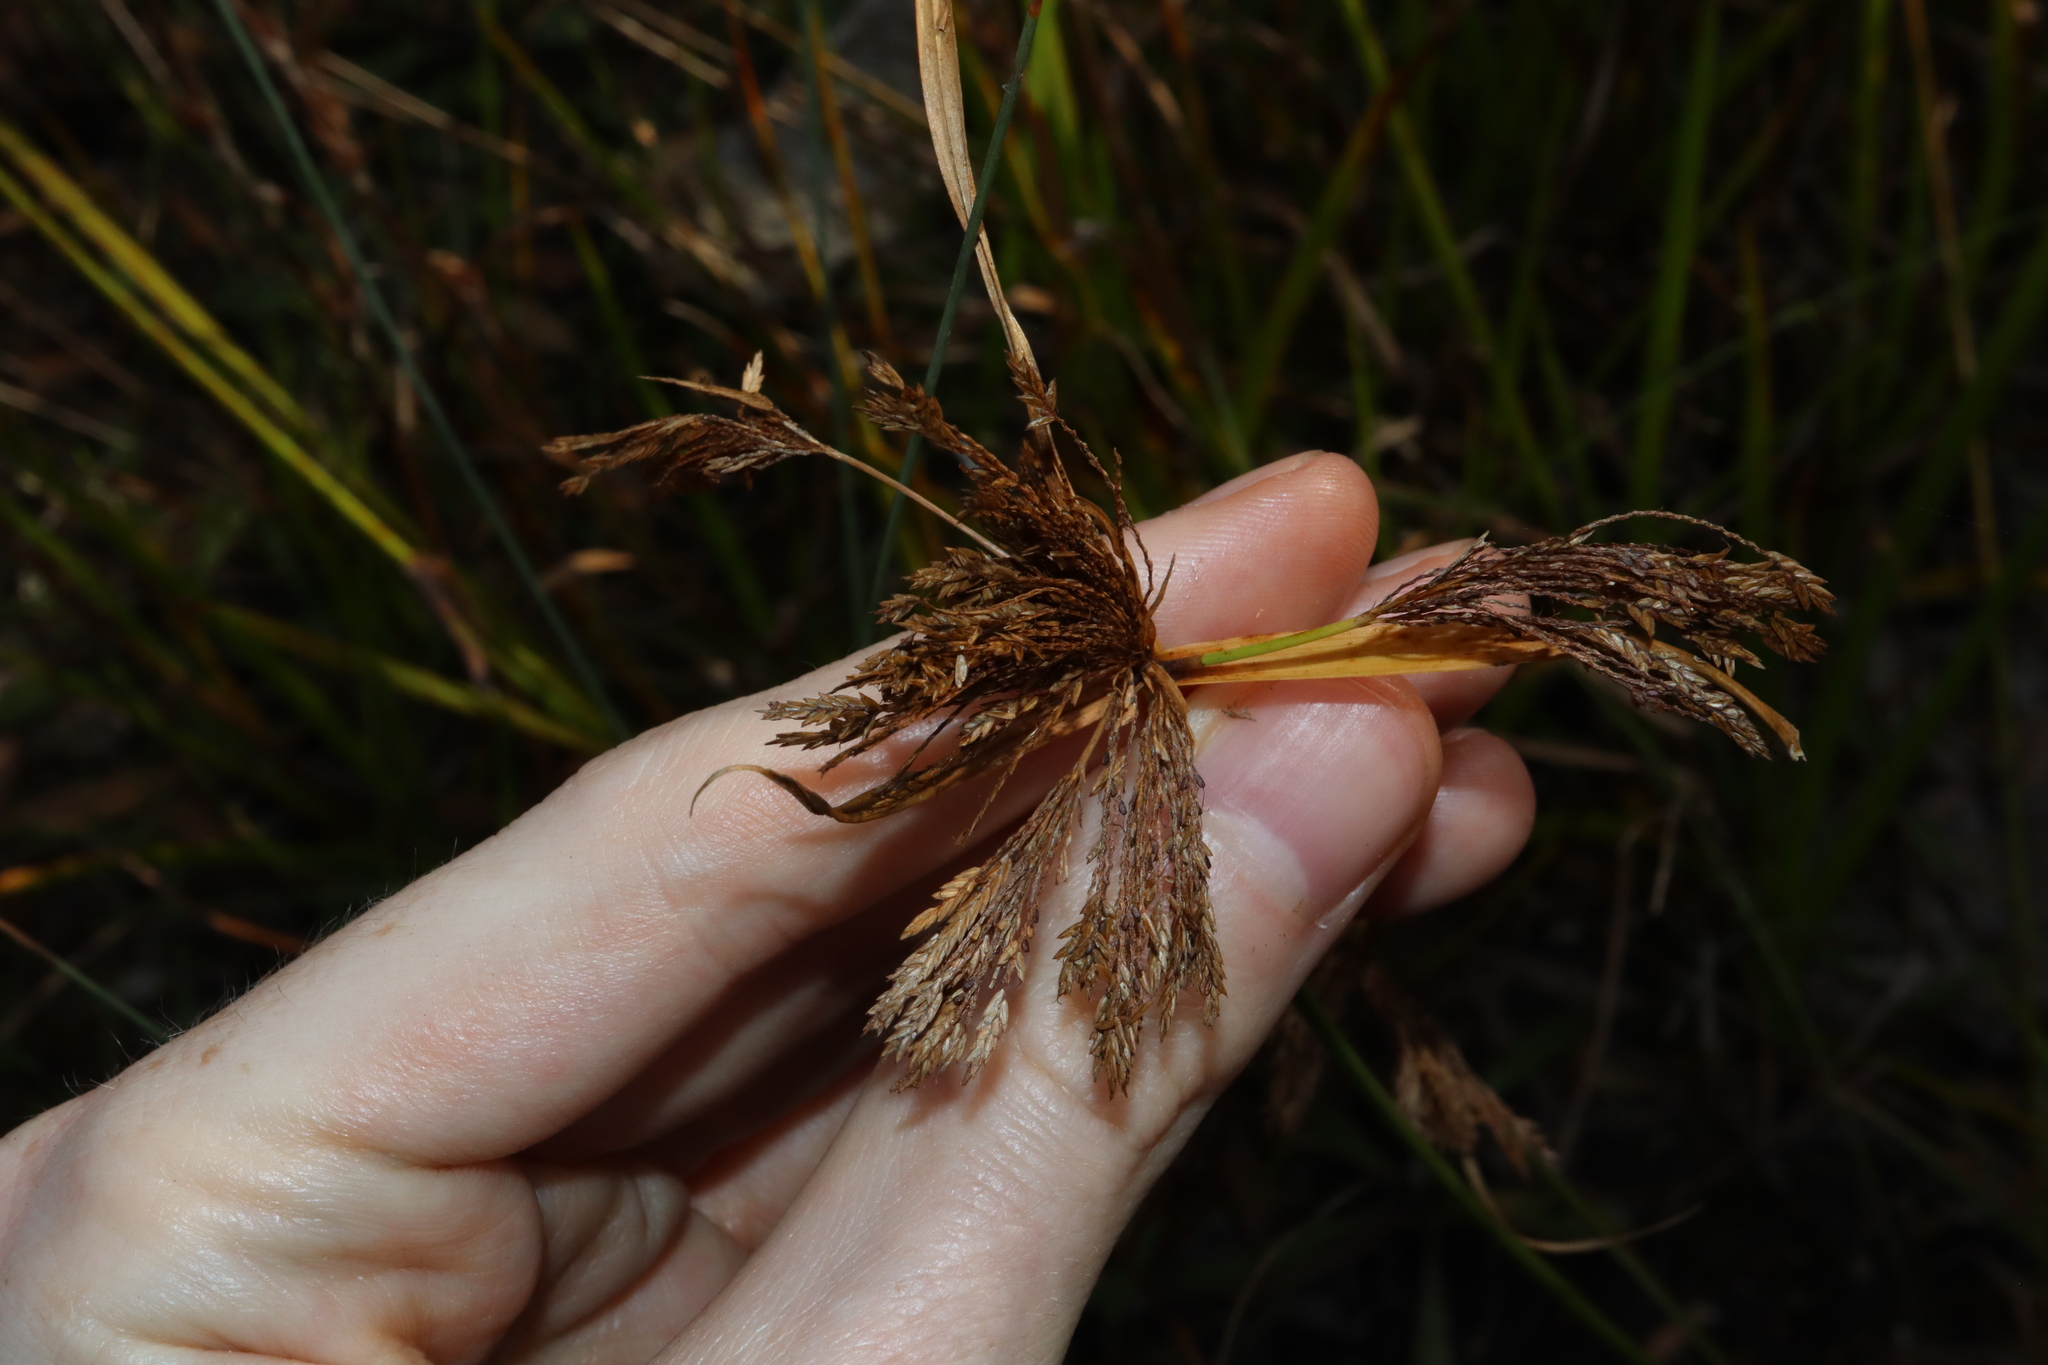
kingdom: Plantae
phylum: Tracheophyta
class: Liliopsida
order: Poales
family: Cyperaceae
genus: Cyperus
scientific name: Cyperus polystachyos
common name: Bunchy flat sedge
